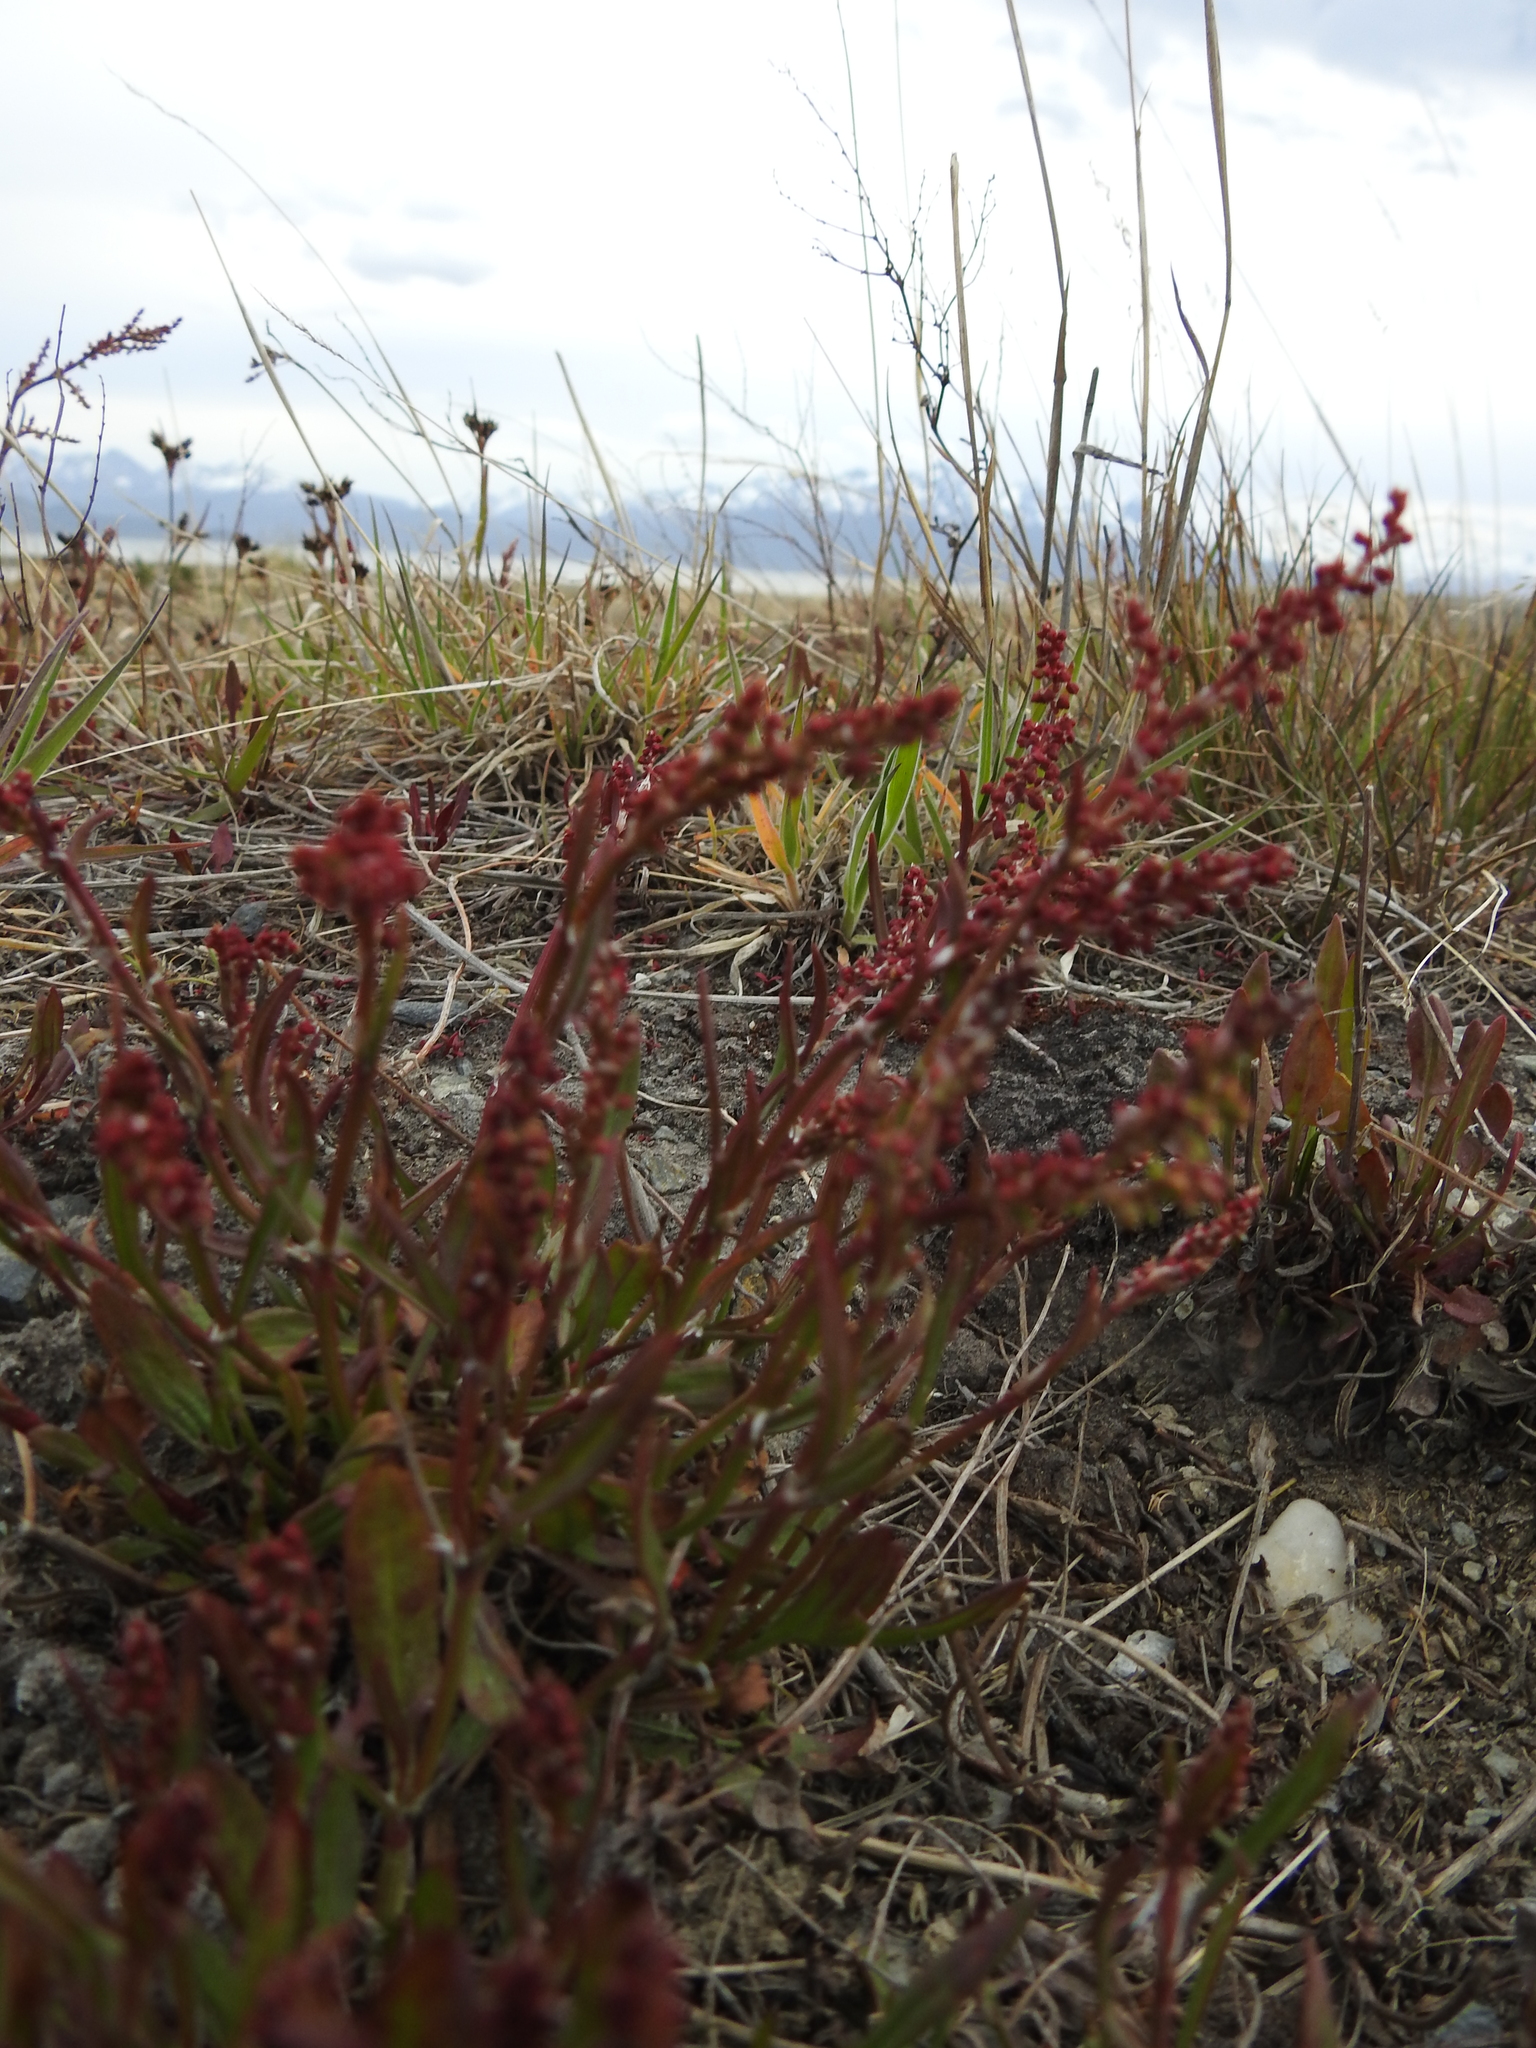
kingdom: Plantae
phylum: Tracheophyta
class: Magnoliopsida
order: Caryophyllales
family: Polygonaceae
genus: Rumex
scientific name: Rumex acetosella
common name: Common sheep sorrel
